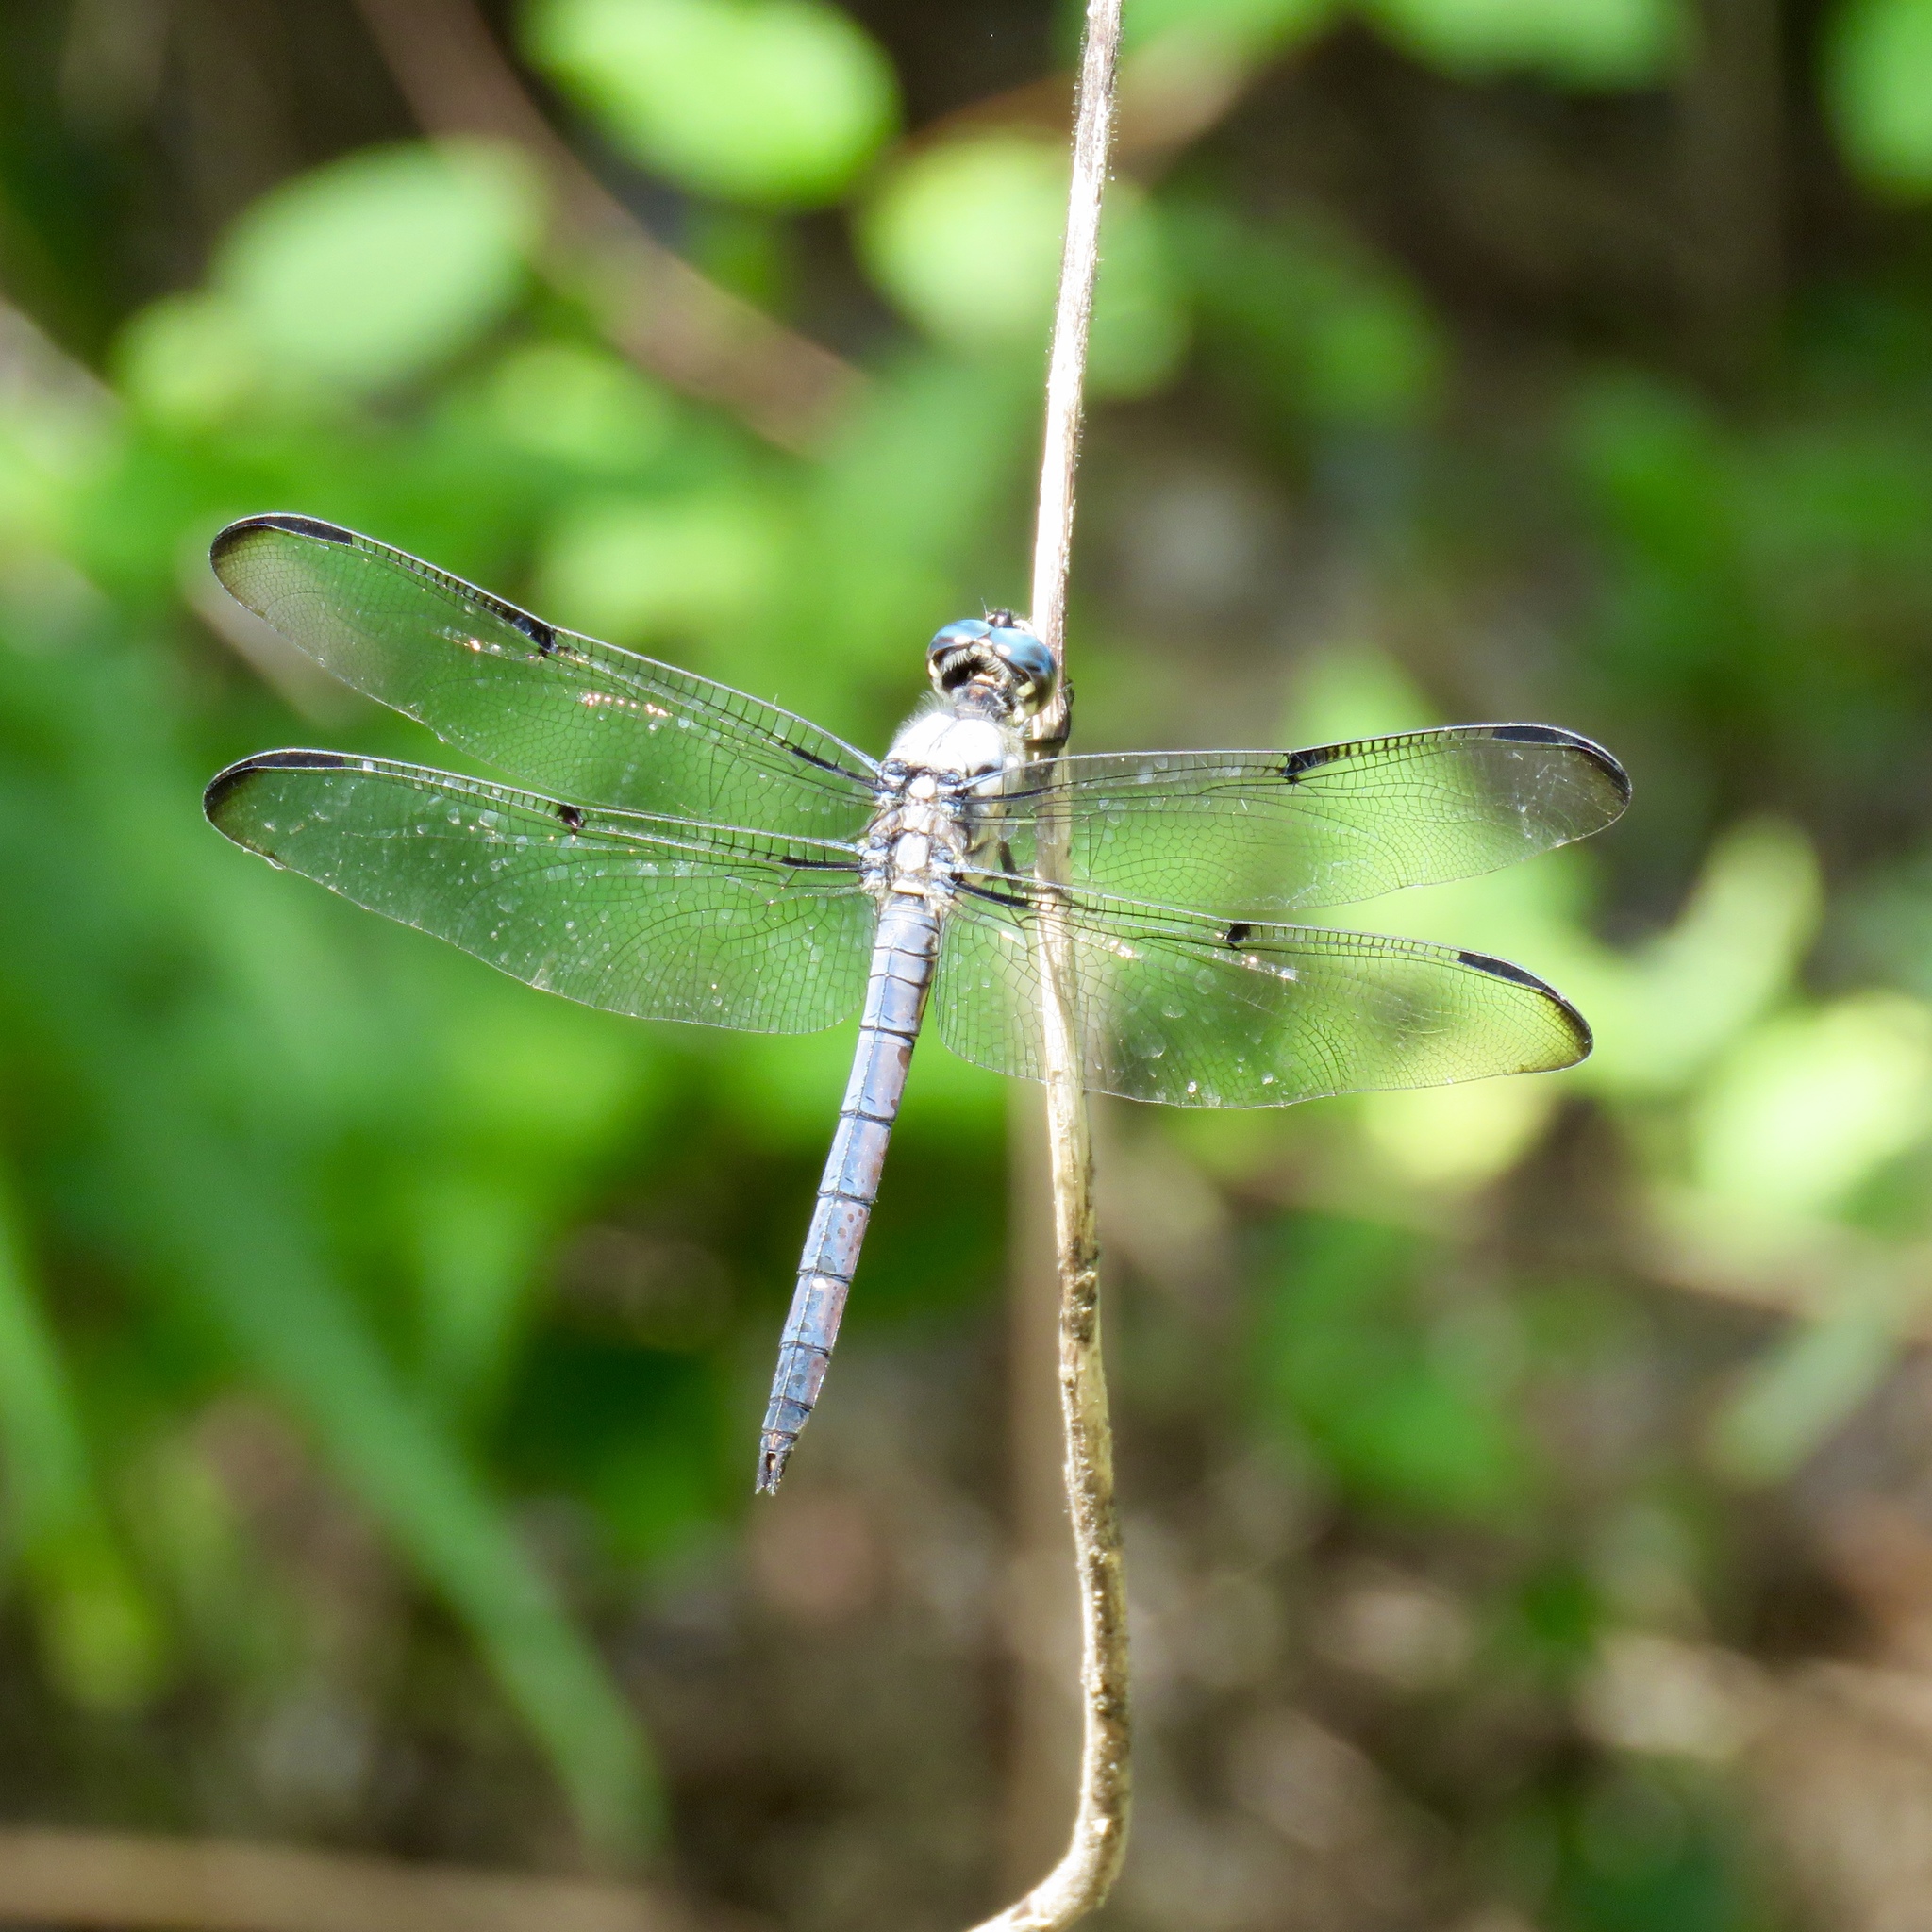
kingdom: Animalia
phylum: Arthropoda
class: Insecta
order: Odonata
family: Libellulidae
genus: Libellula
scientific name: Libellula vibrans
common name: Great blue skimmer
